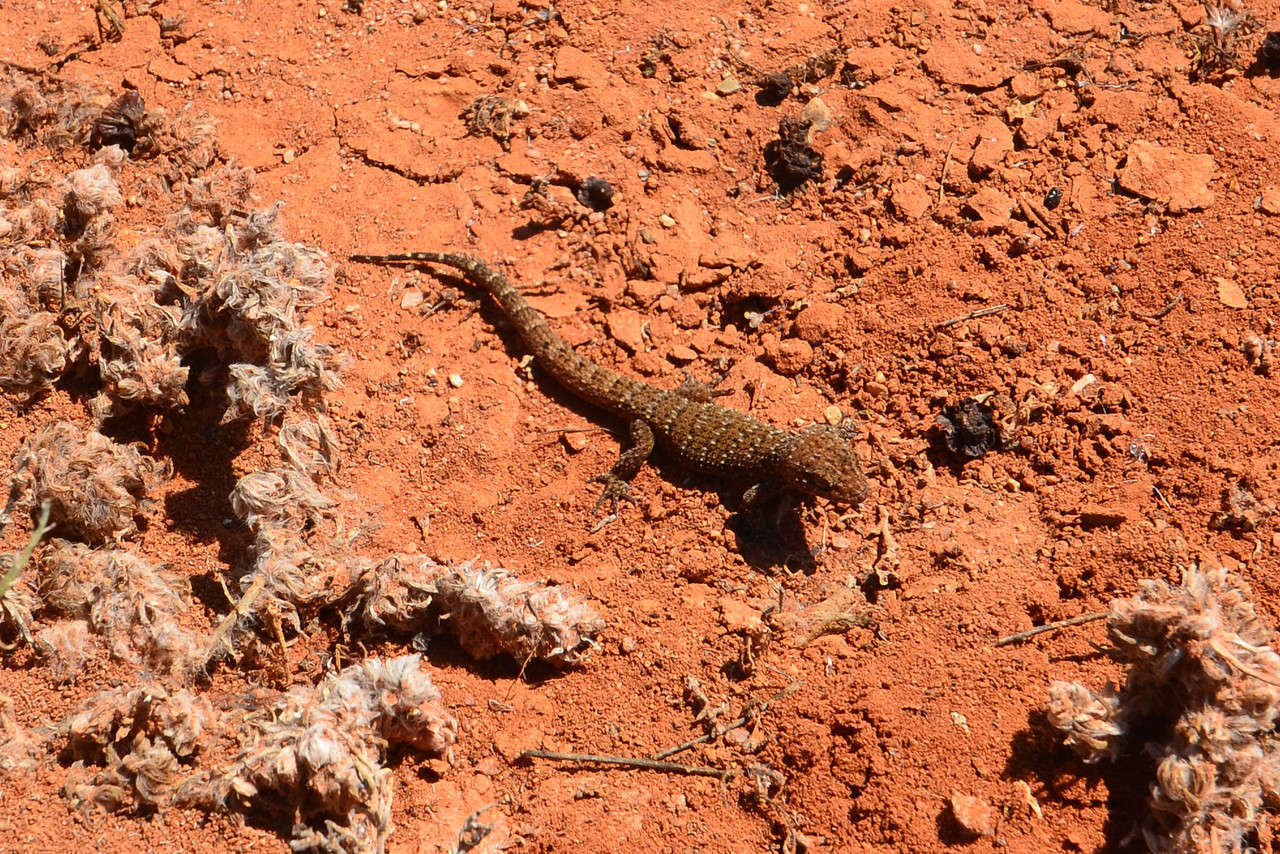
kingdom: Animalia
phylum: Chordata
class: Squamata
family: Gekkonidae
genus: Heteronotia
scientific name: Heteronotia binoei
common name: Bynoe's gecko
